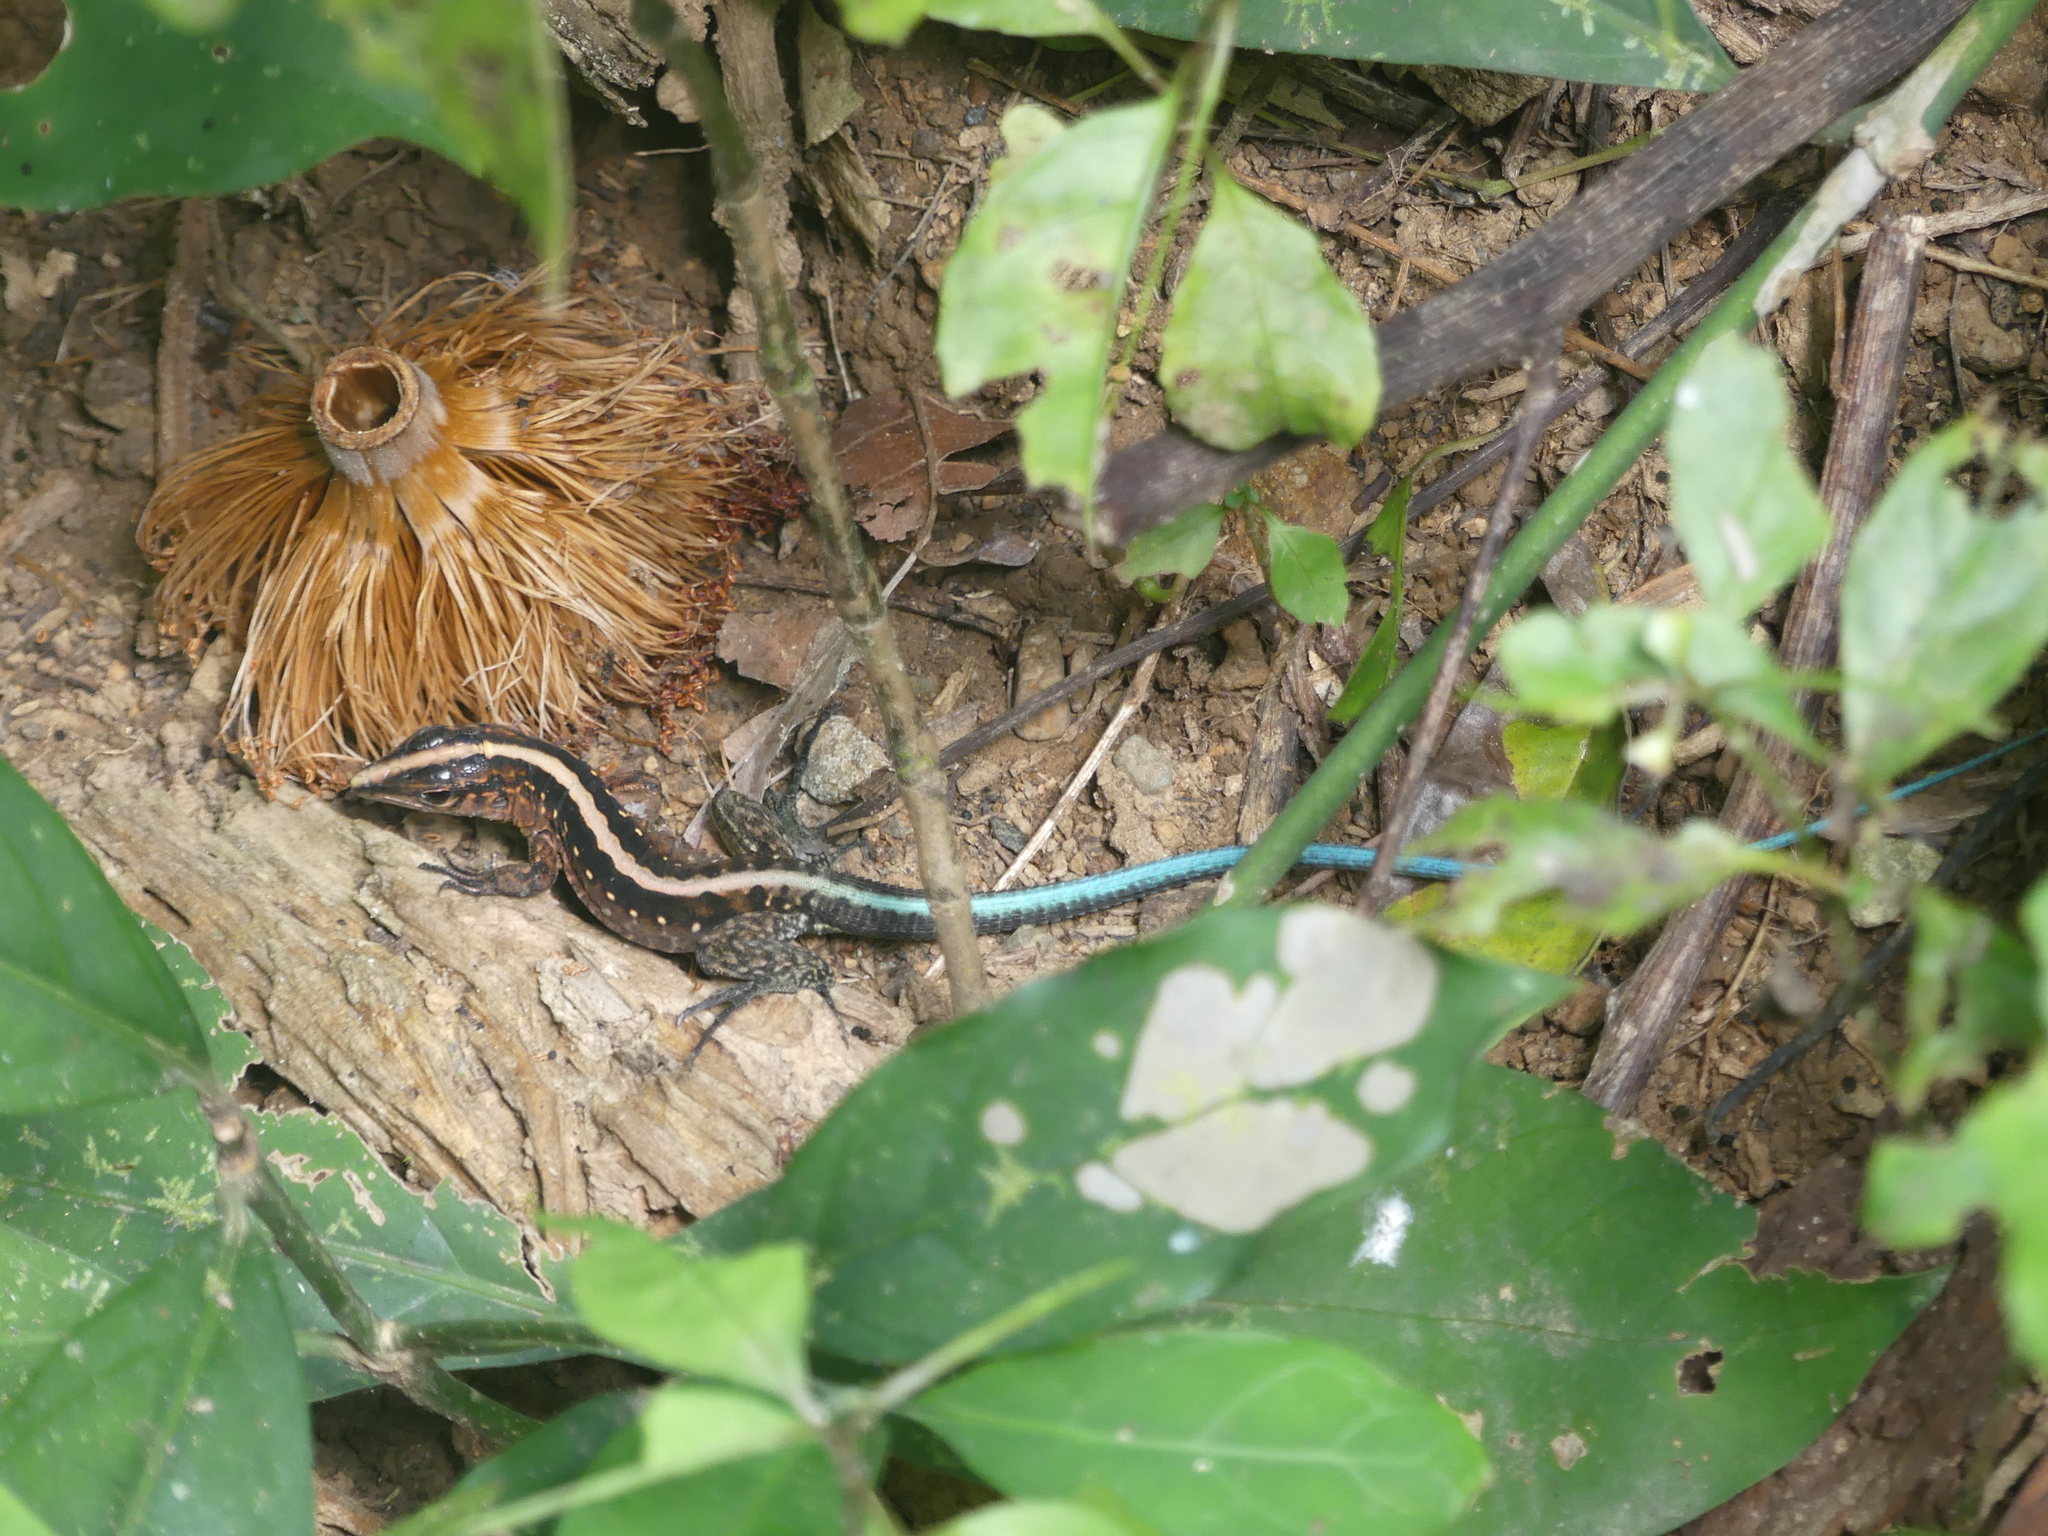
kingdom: Animalia
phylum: Chordata
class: Squamata
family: Teiidae
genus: Holcosus
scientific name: Holcosus festivus
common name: Middle american ameiva
